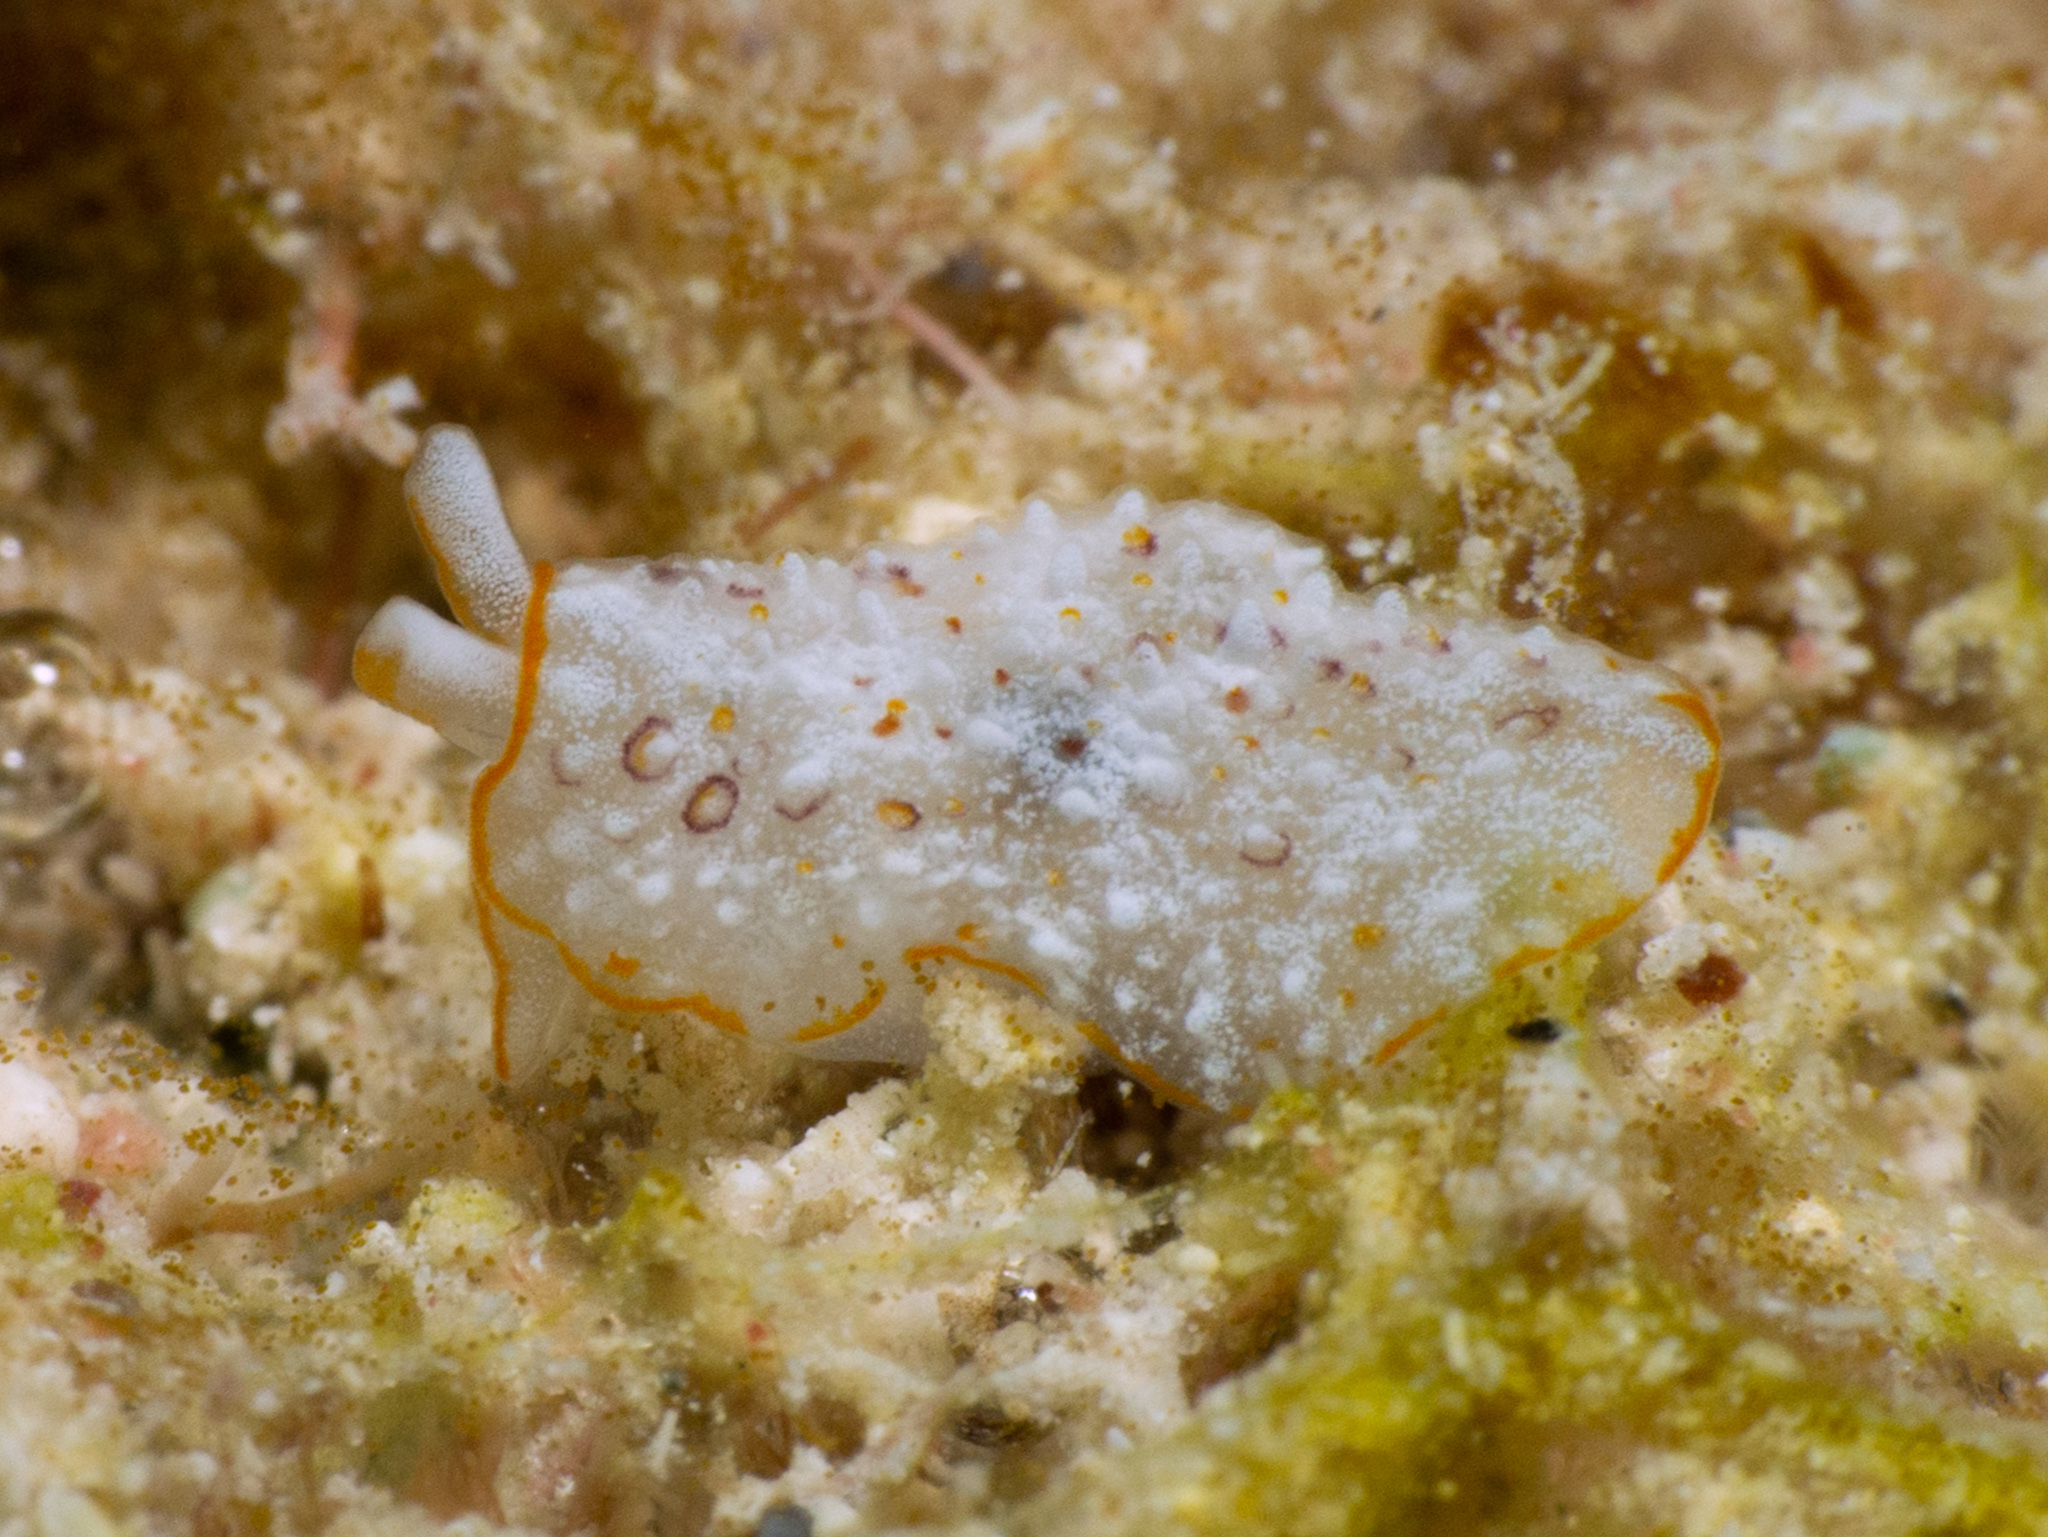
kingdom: Animalia
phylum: Mollusca
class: Gastropoda
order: Pleurobranchida
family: Pleurobranchidae
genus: Pleurobranchus
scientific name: Pleurobranchus areolatus
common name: Atlantic sidegill slug
